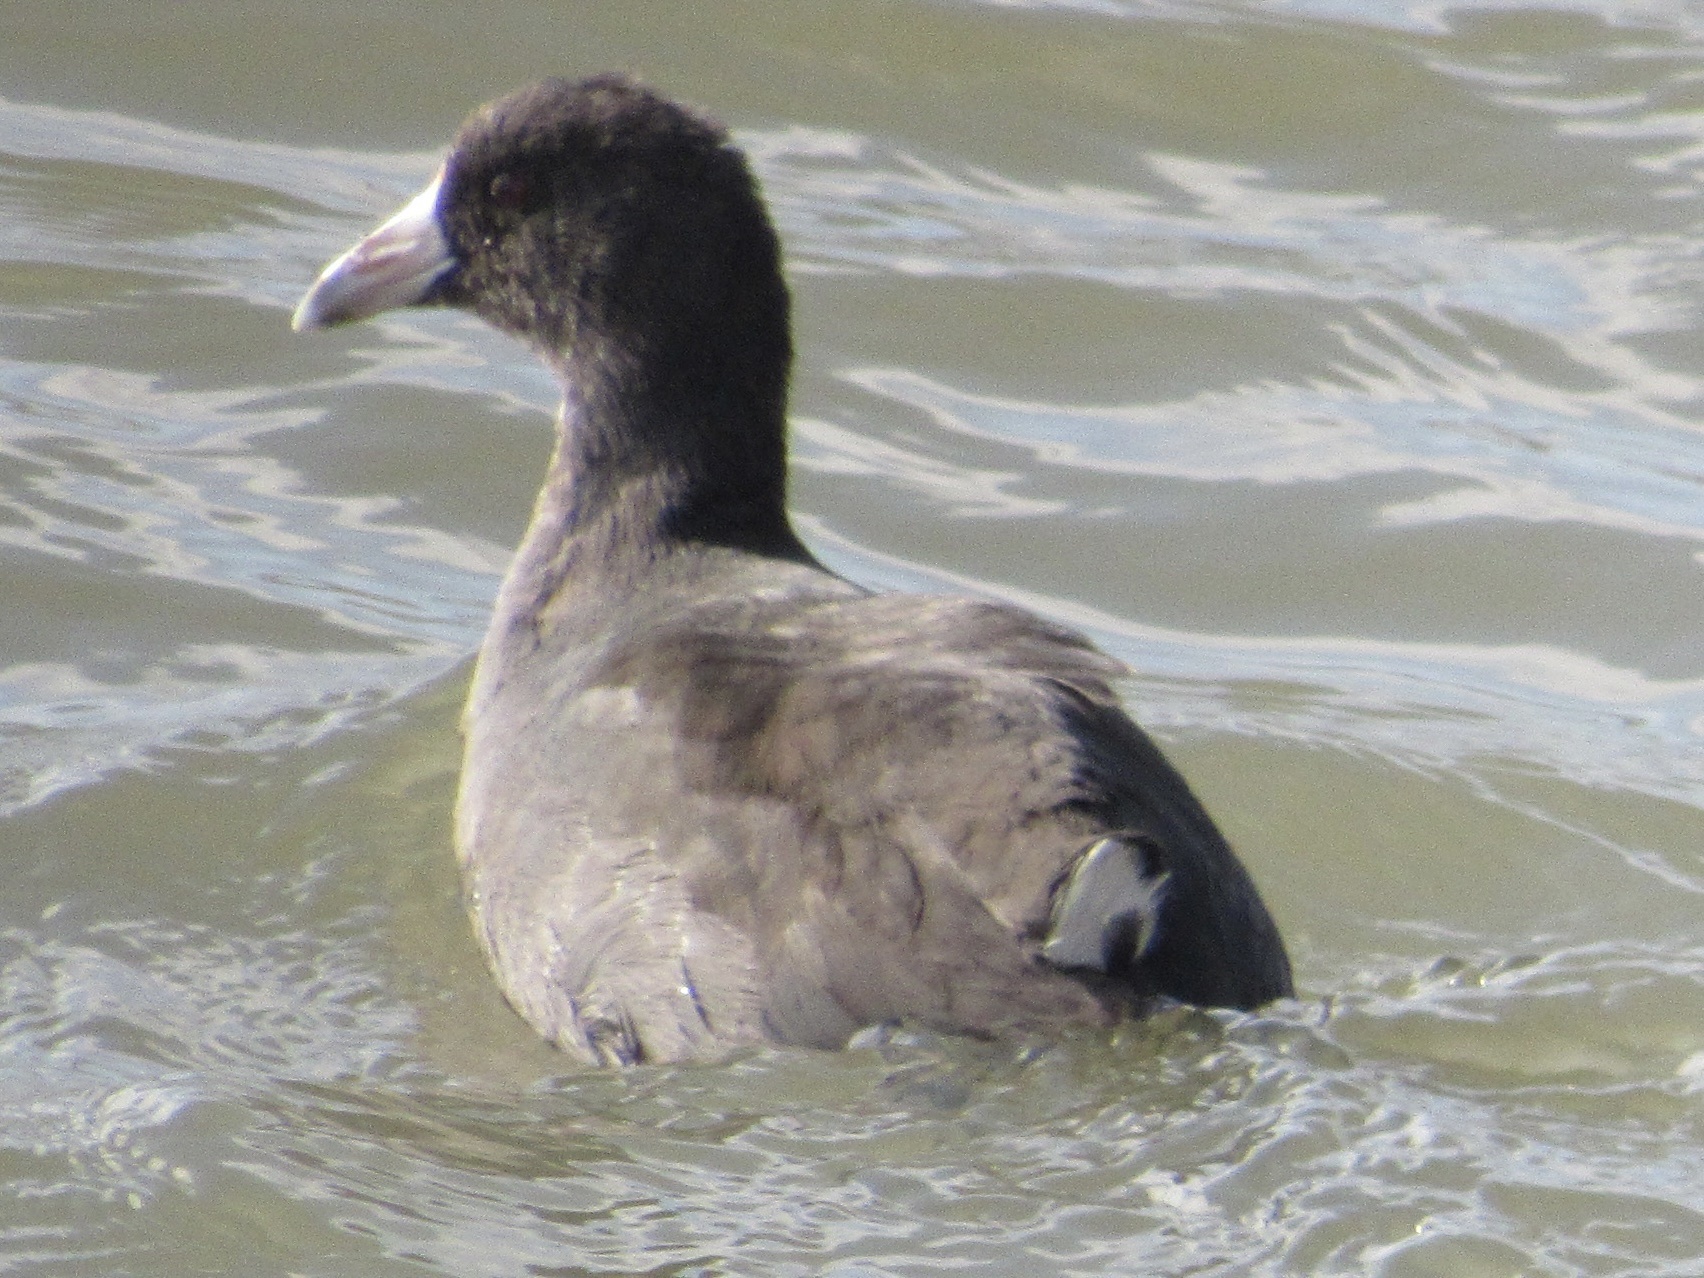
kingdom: Animalia
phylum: Chordata
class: Aves
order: Gruiformes
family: Rallidae
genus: Fulica
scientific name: Fulica americana
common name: American coot
